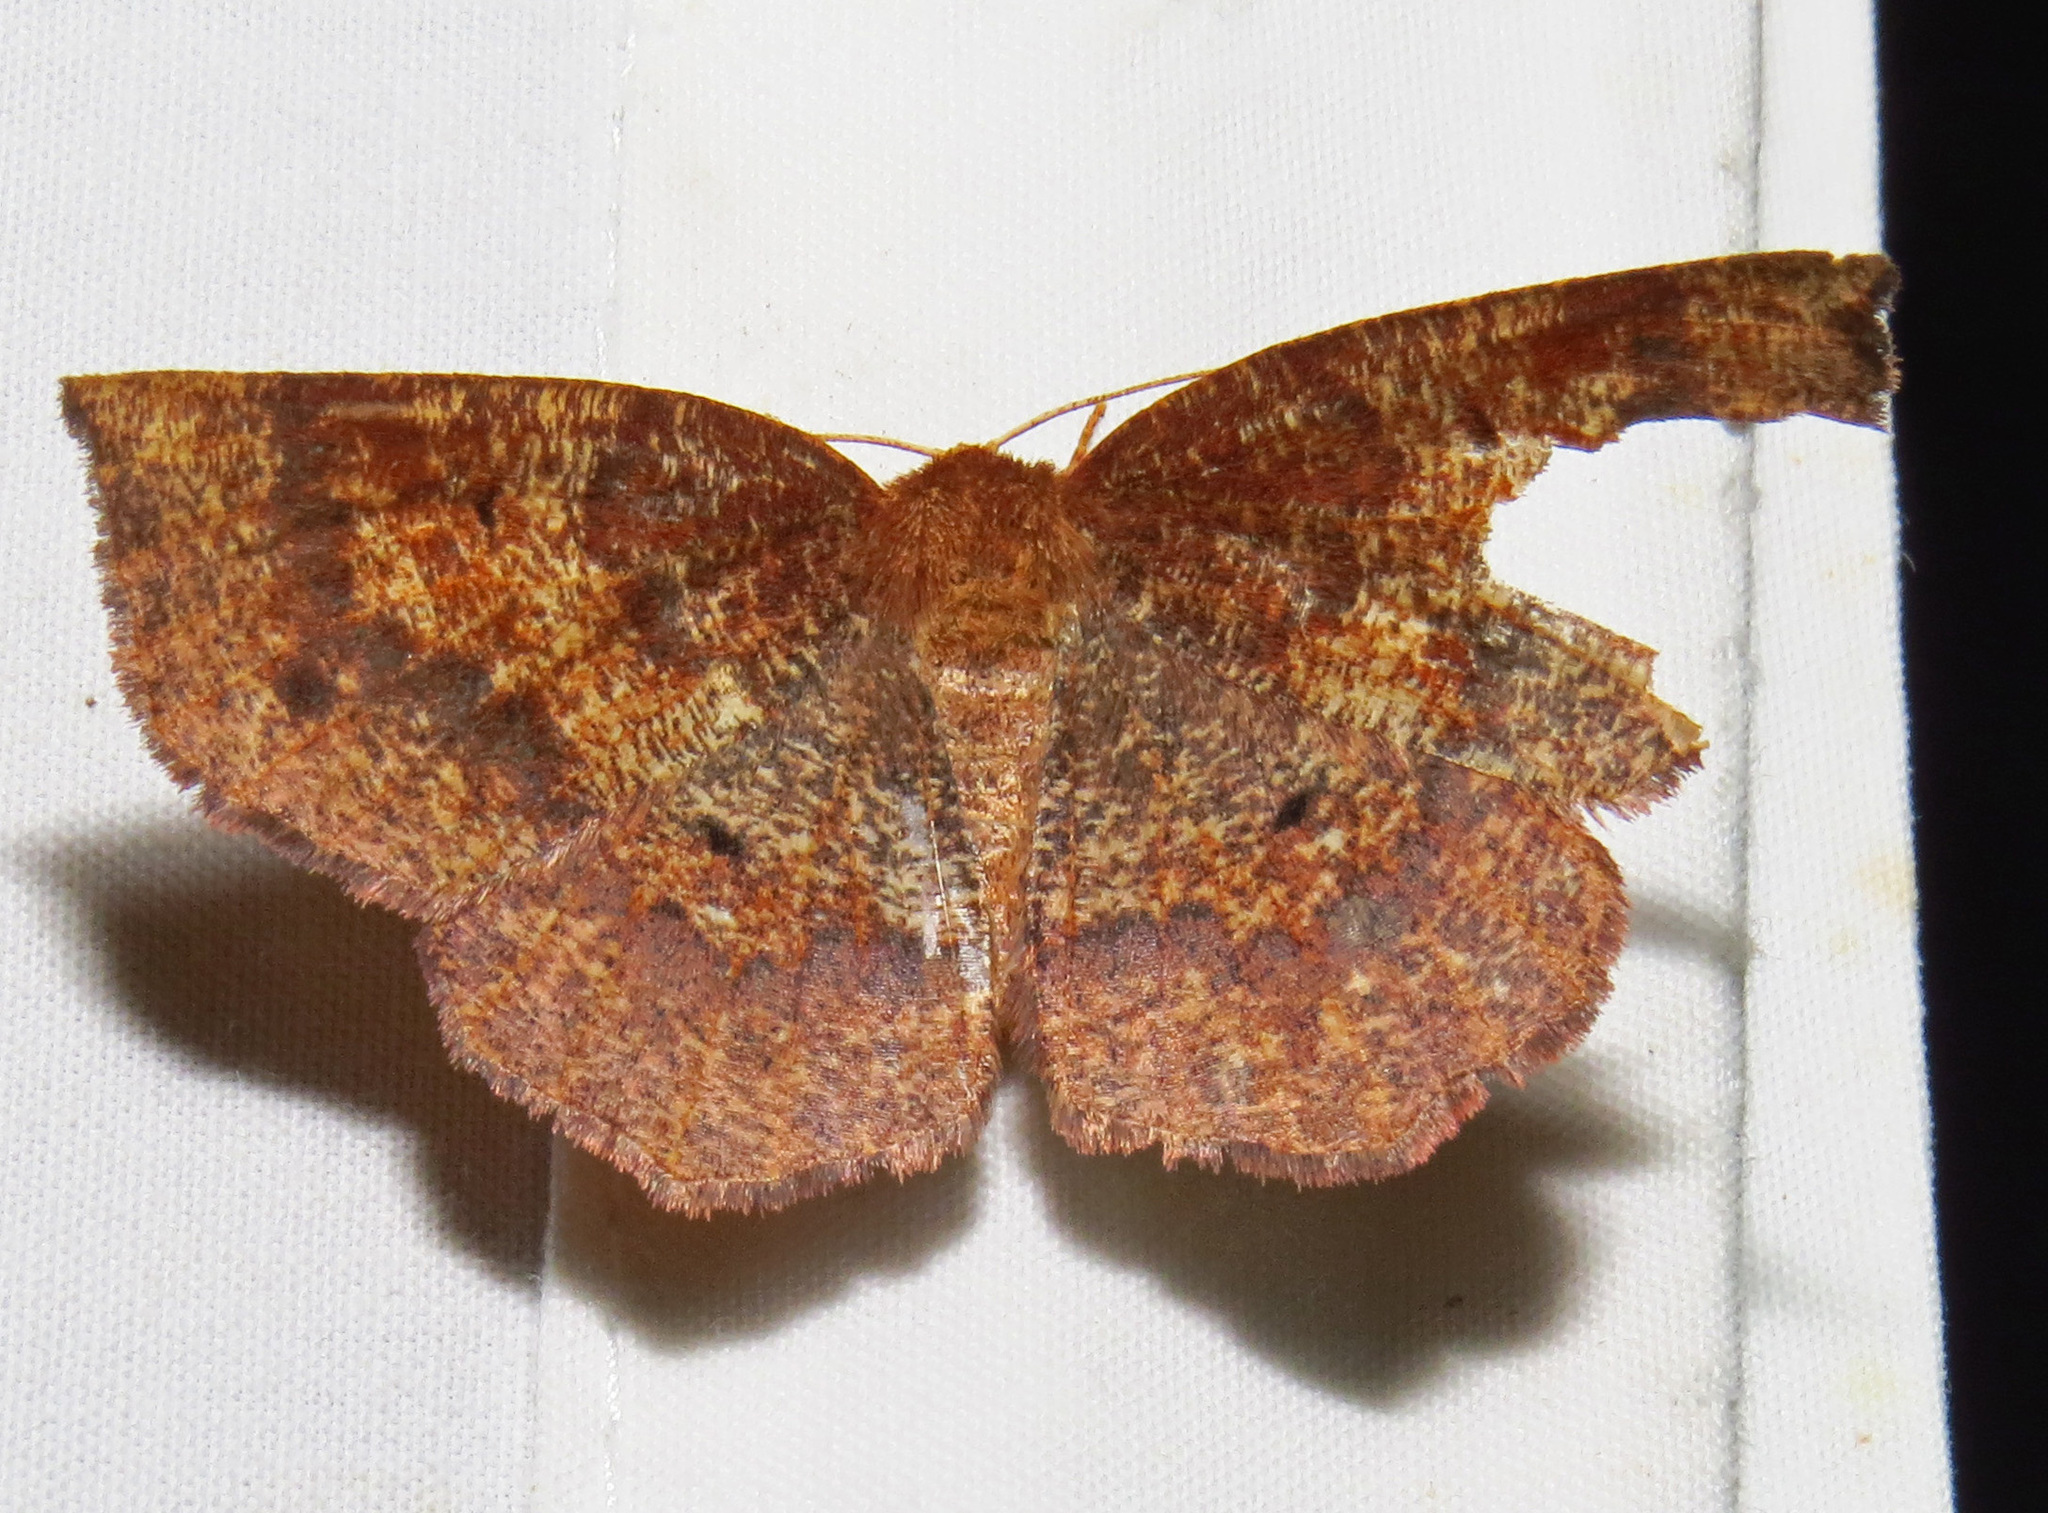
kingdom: Animalia
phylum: Arthropoda
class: Insecta
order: Lepidoptera
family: Geometridae
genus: Metarranthis
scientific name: Metarranthis angularia
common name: Angled metarranthis moth
